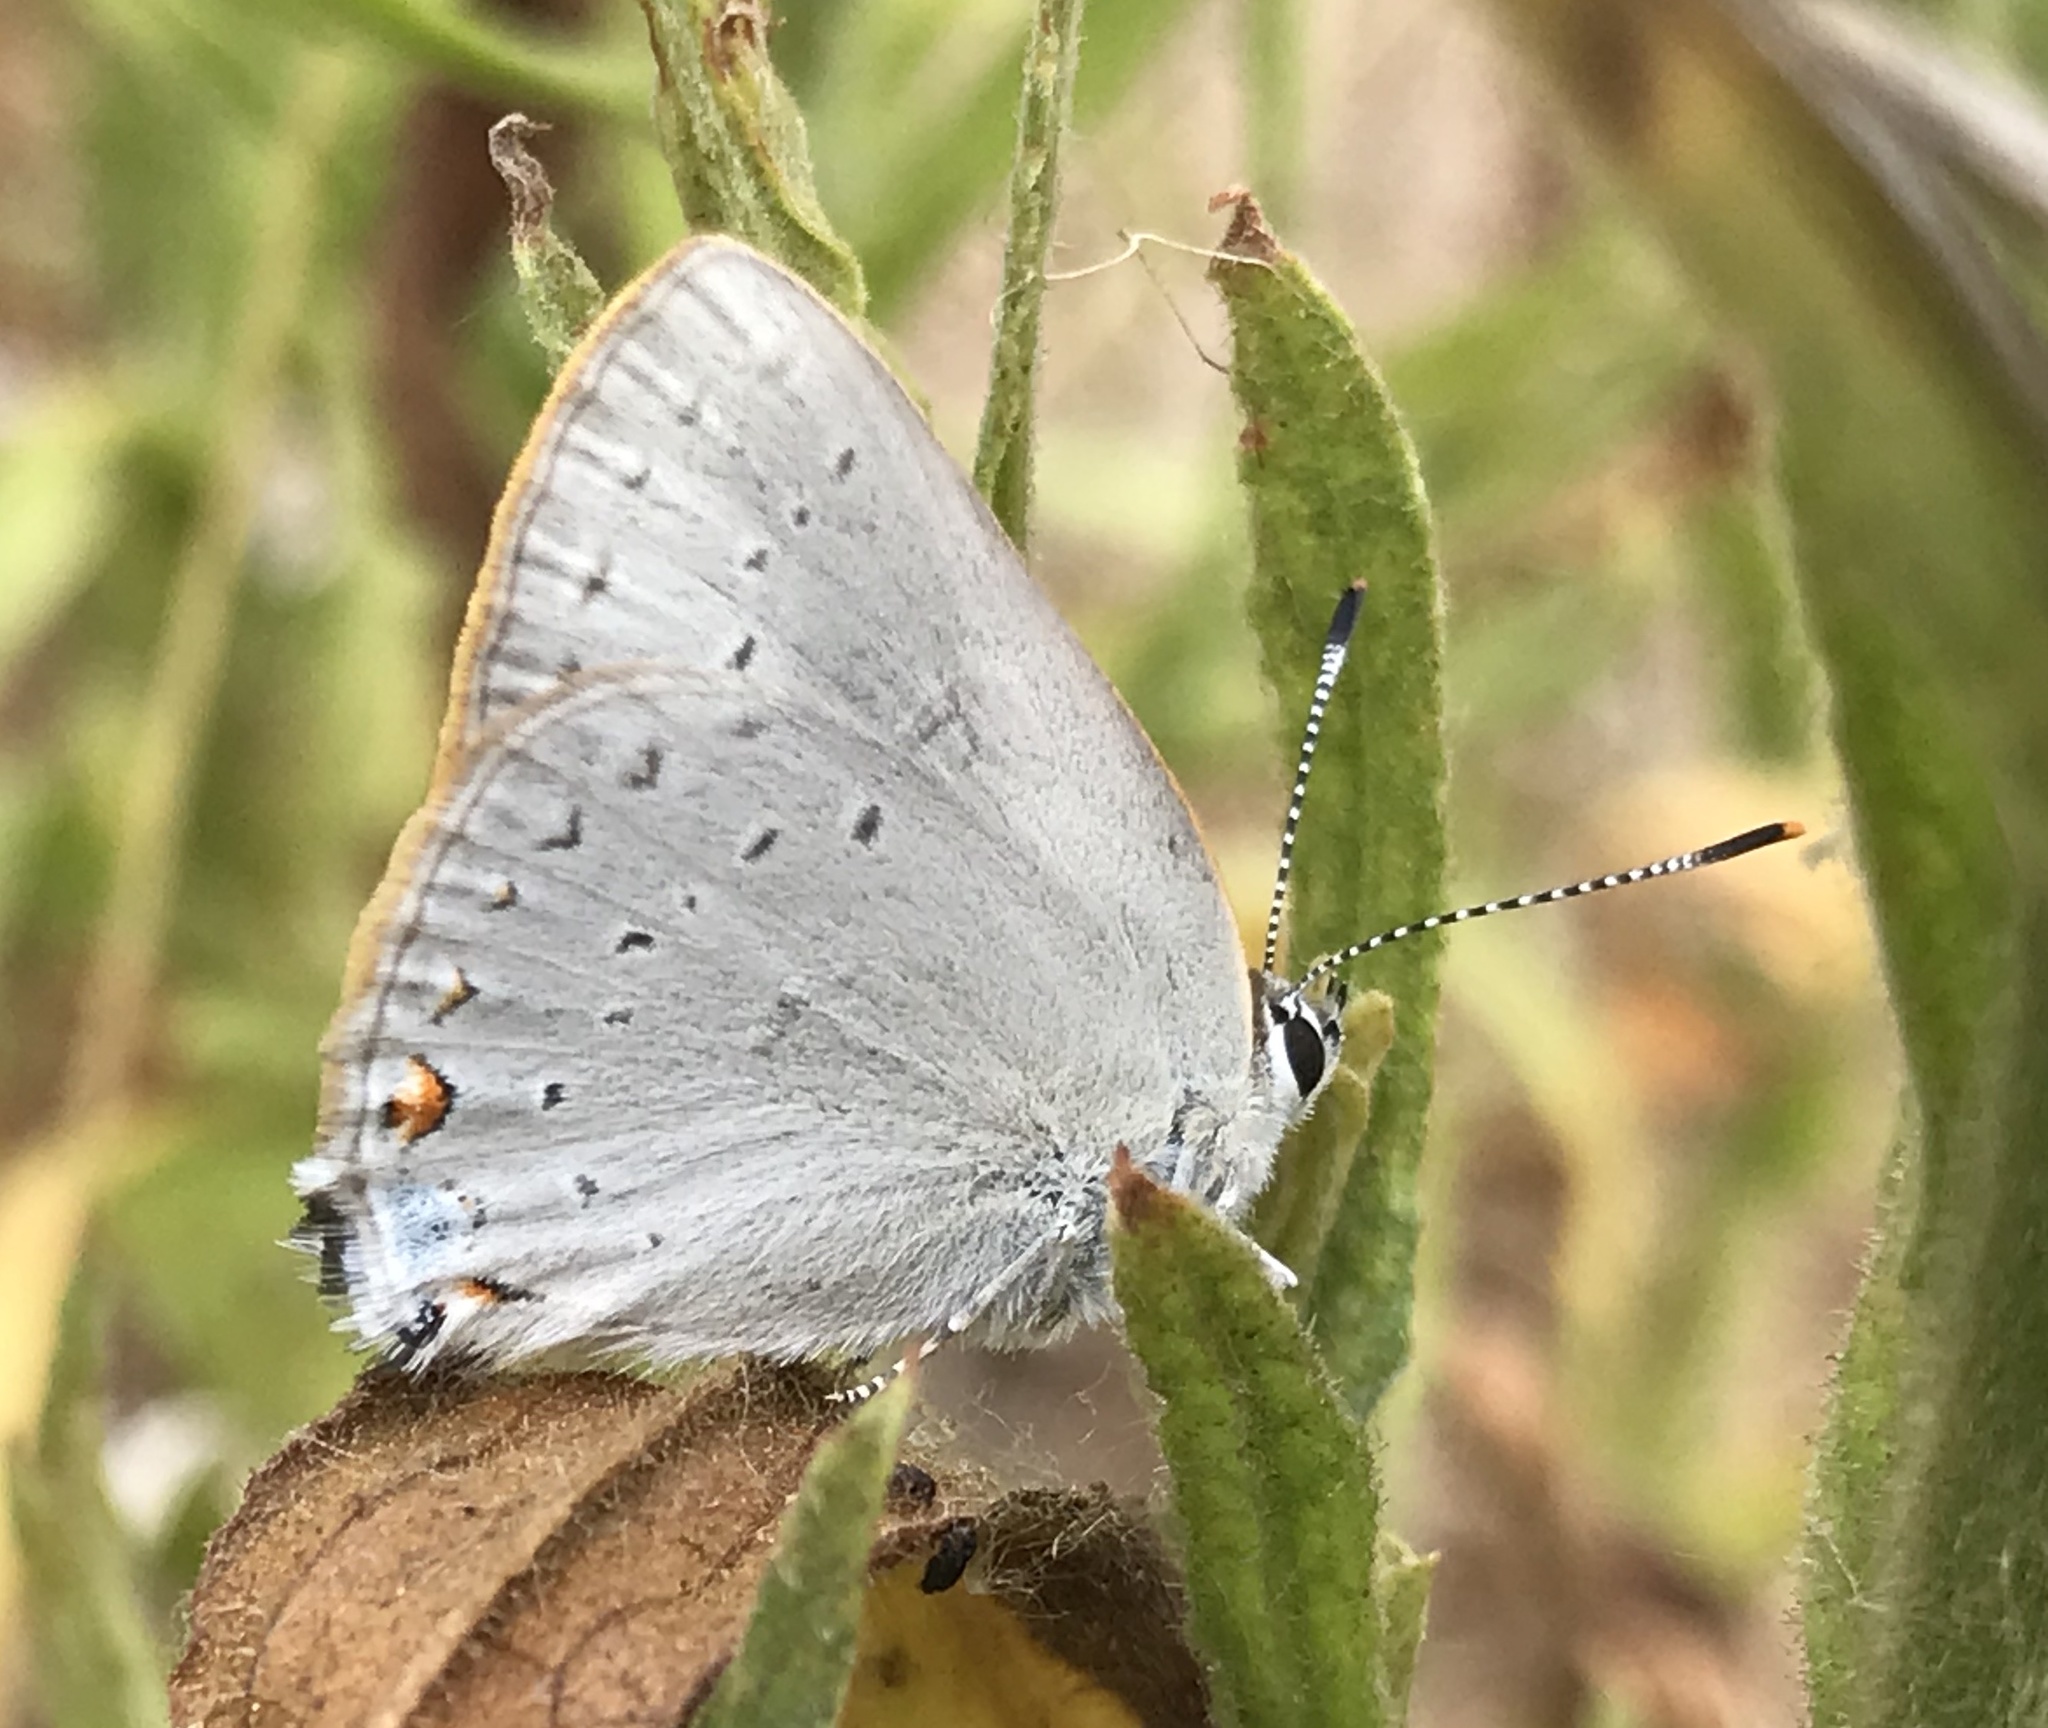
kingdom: Animalia
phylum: Arthropoda
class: Insecta
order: Lepidoptera
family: Lycaenidae
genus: Thecla
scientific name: Thecla dryope
